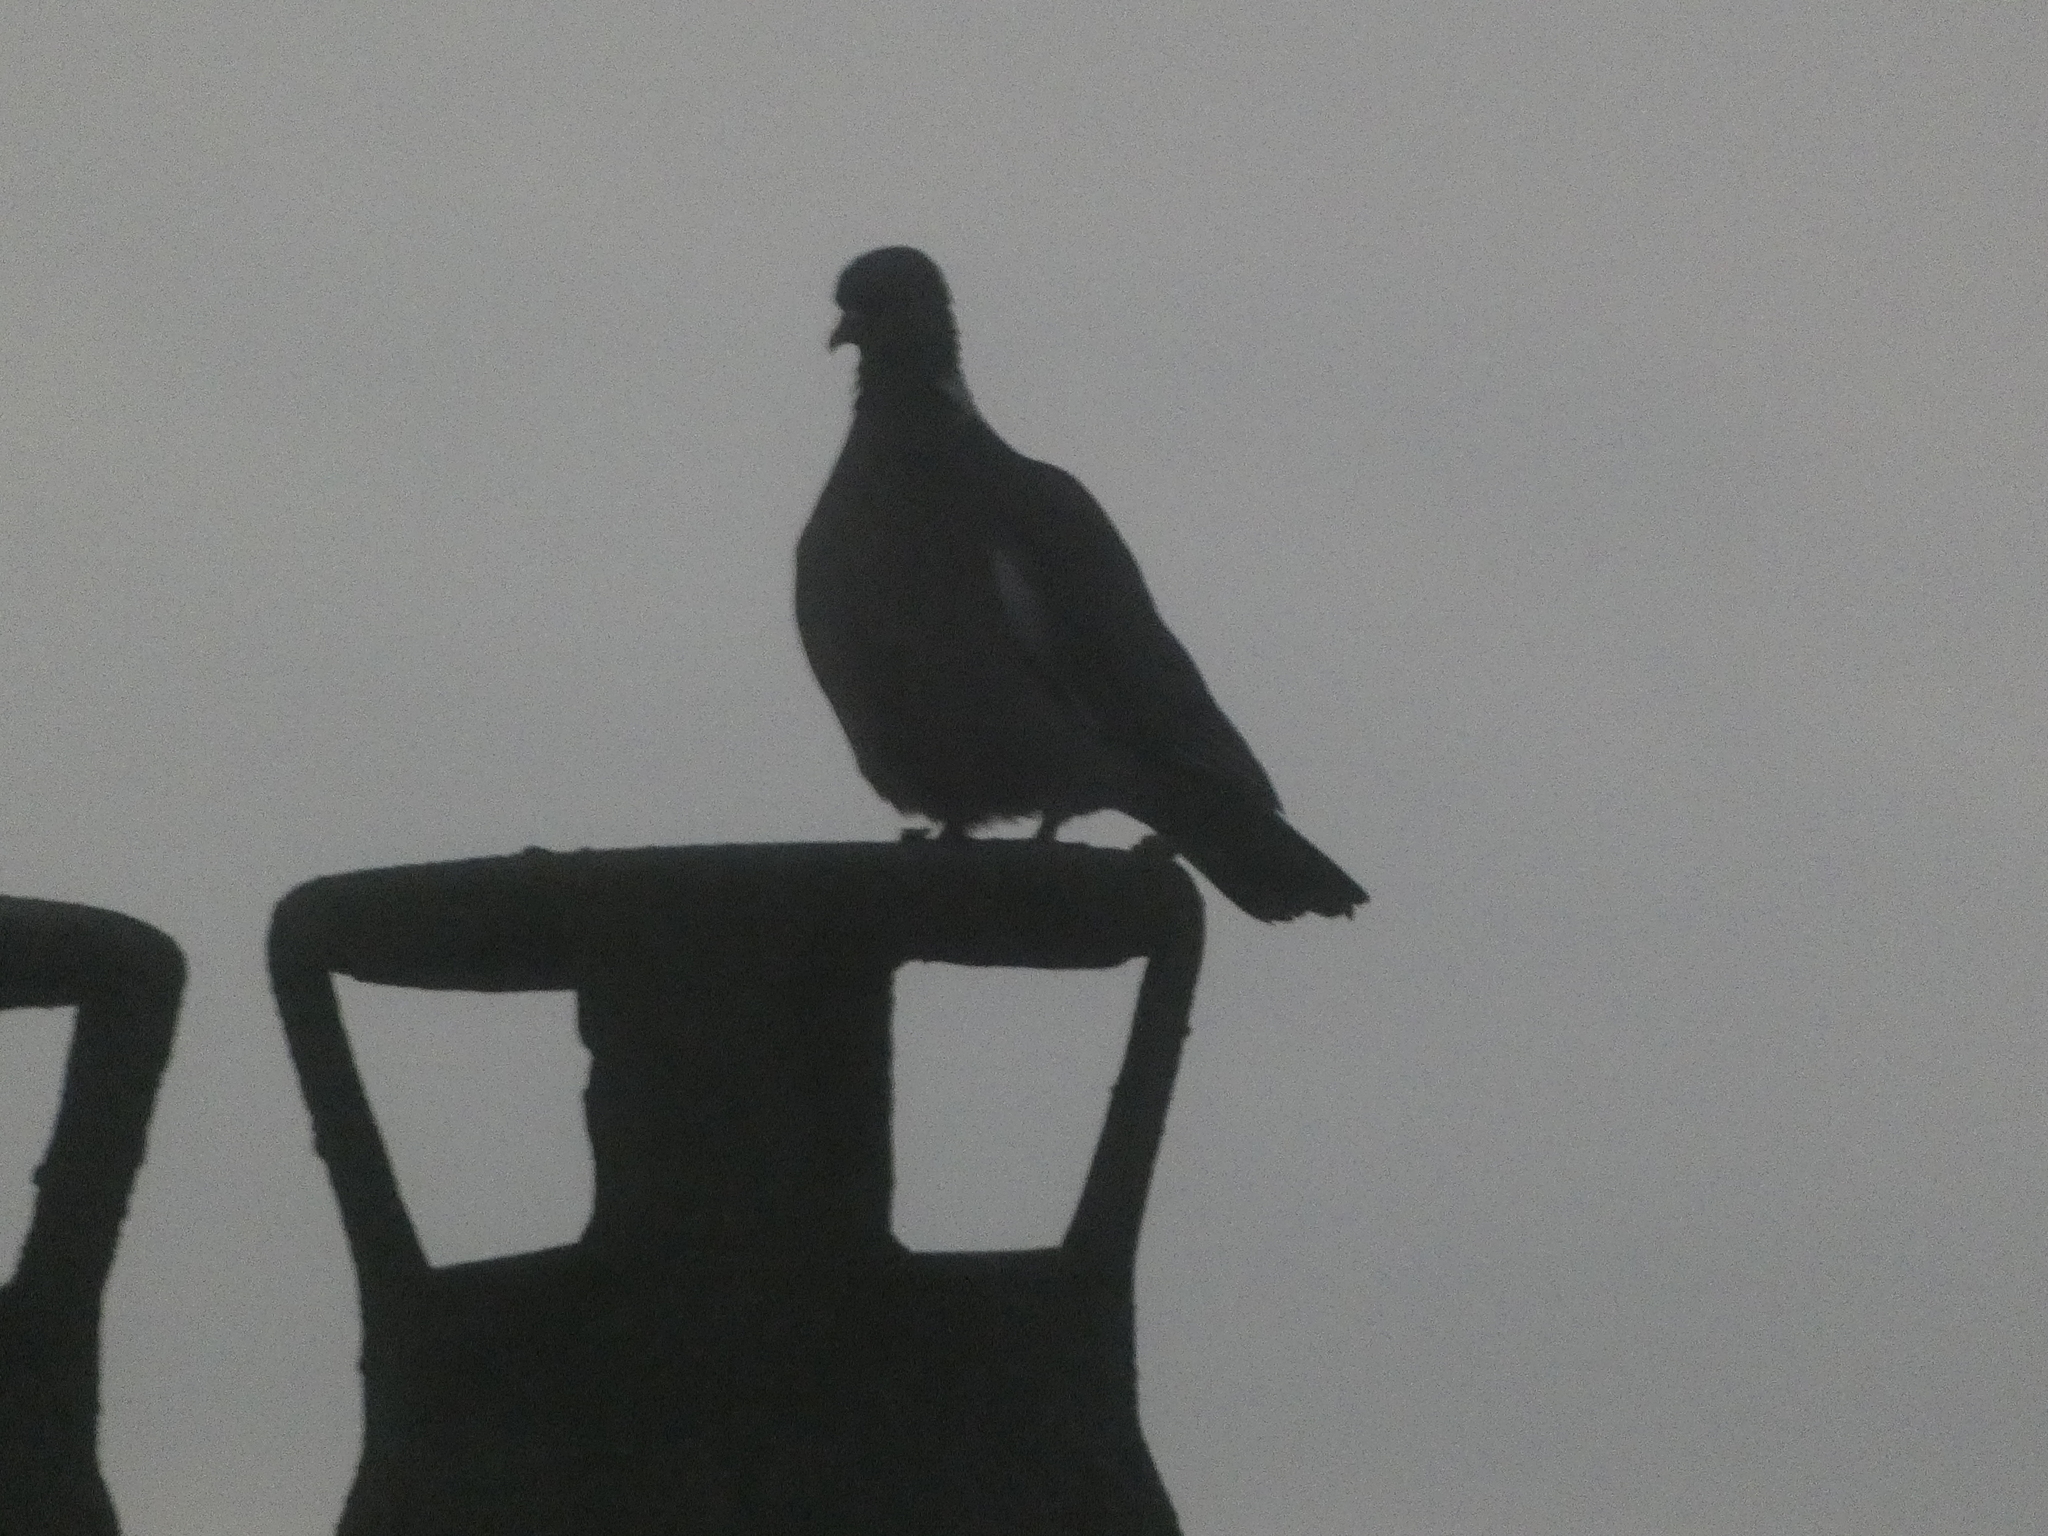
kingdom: Animalia
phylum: Chordata
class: Aves
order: Columbiformes
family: Columbidae
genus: Columba
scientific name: Columba palumbus
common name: Common wood pigeon
